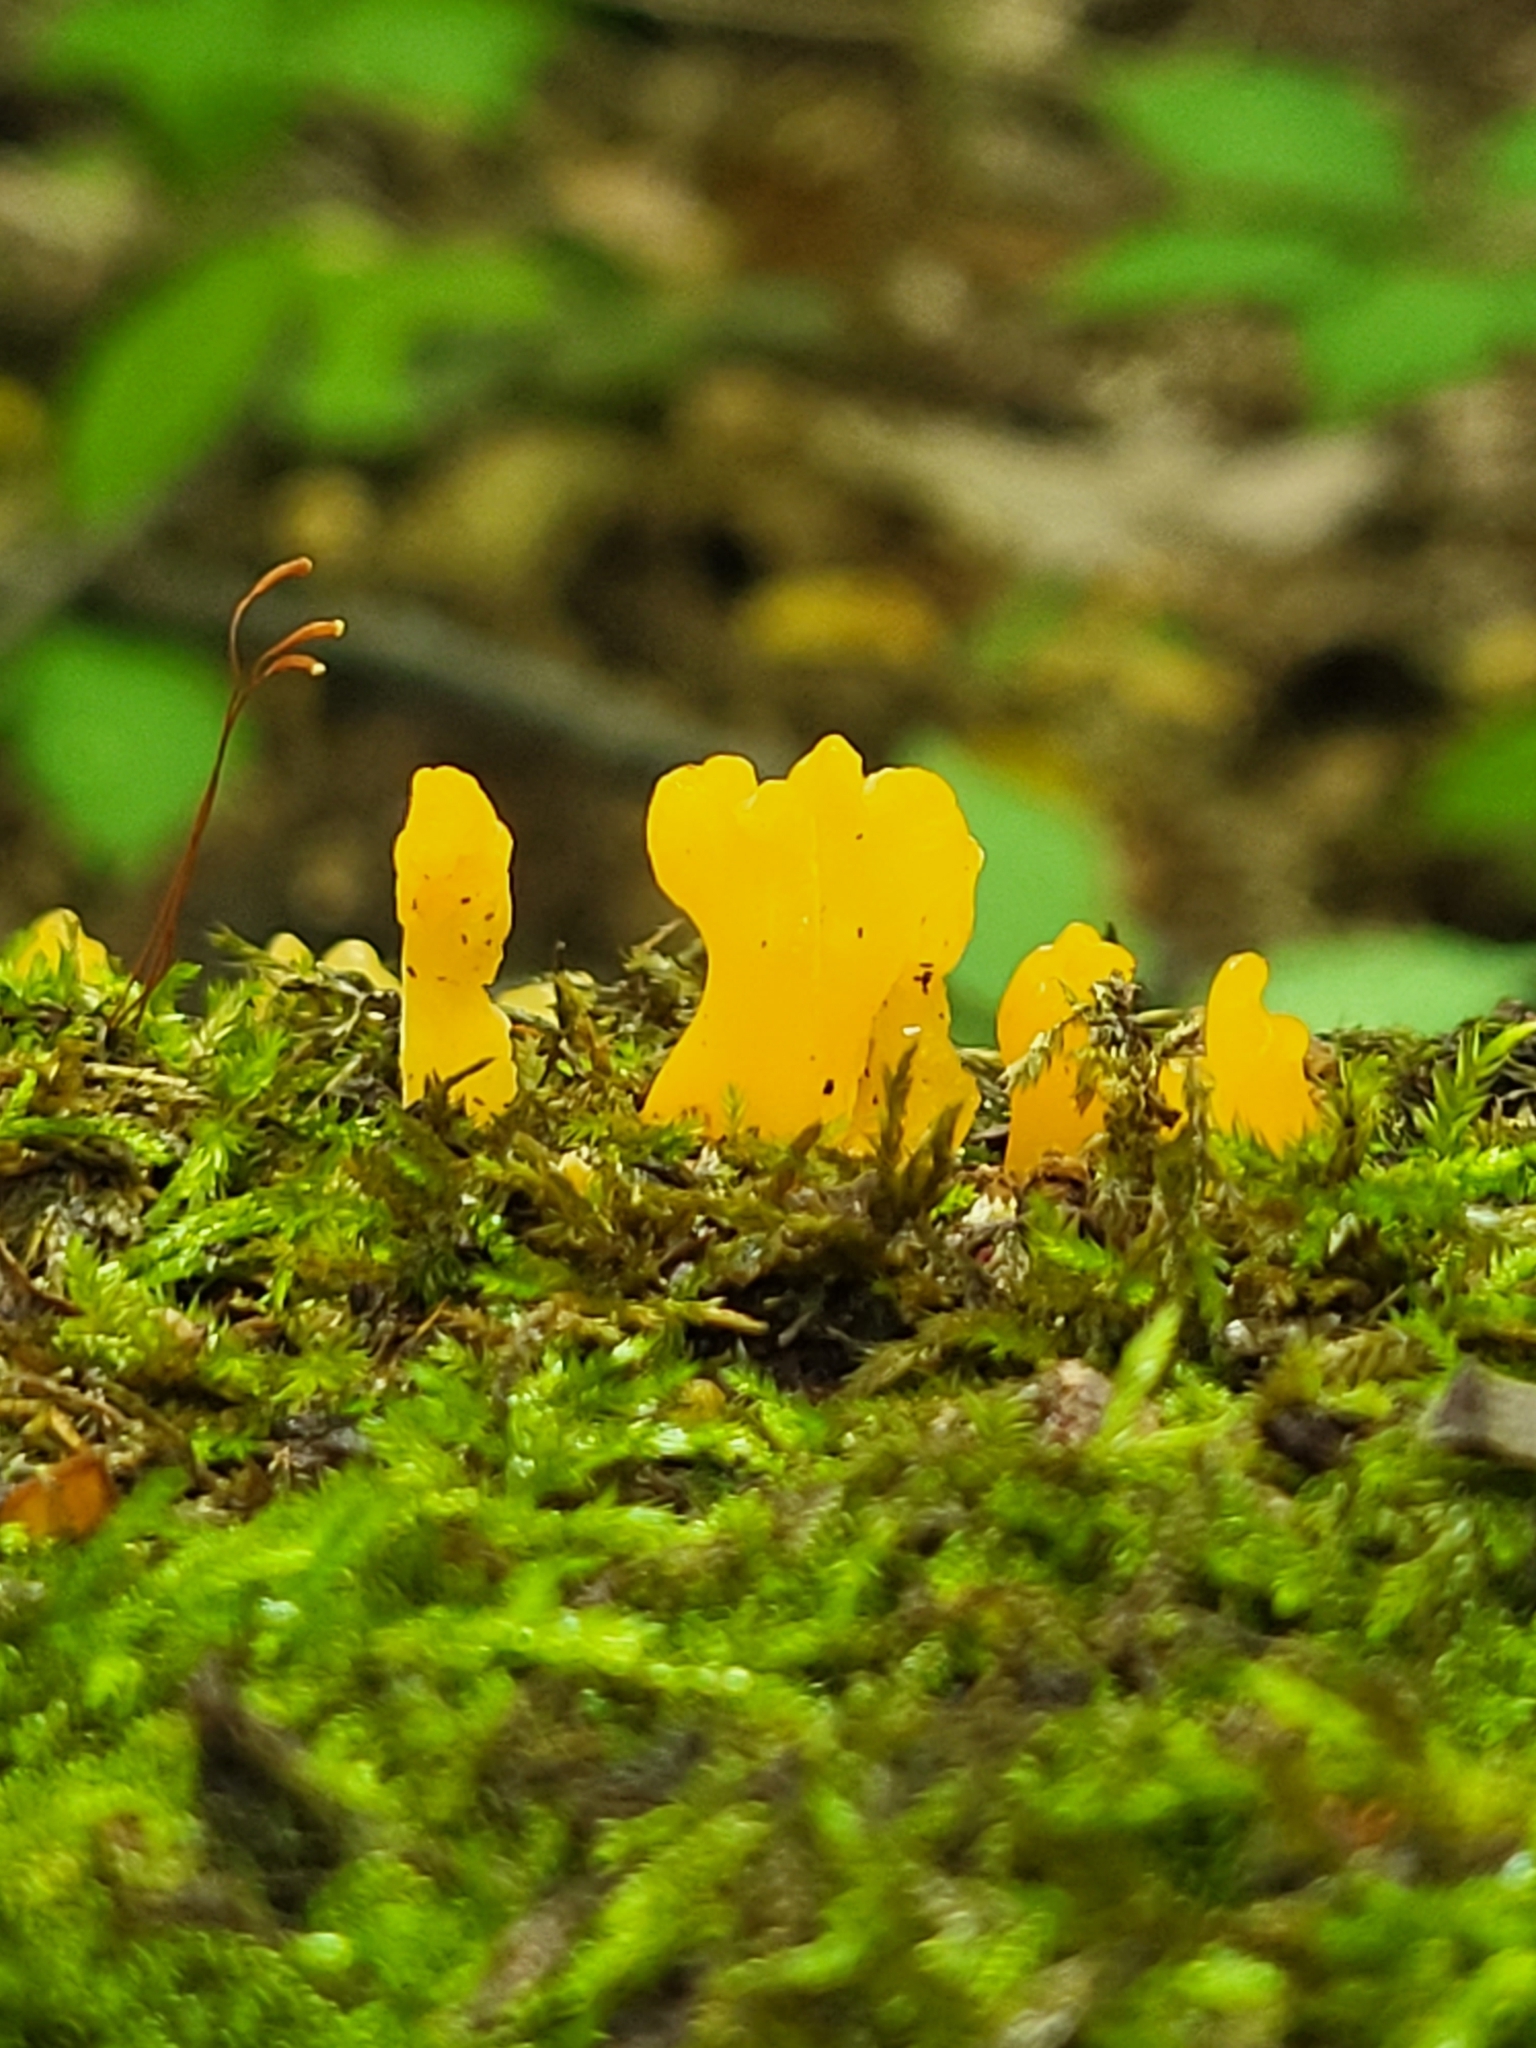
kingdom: Fungi
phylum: Basidiomycota
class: Dacrymycetes
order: Dacrymycetales
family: Dacrymycetaceae
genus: Dacrymyces
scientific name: Dacrymyces spathularius
